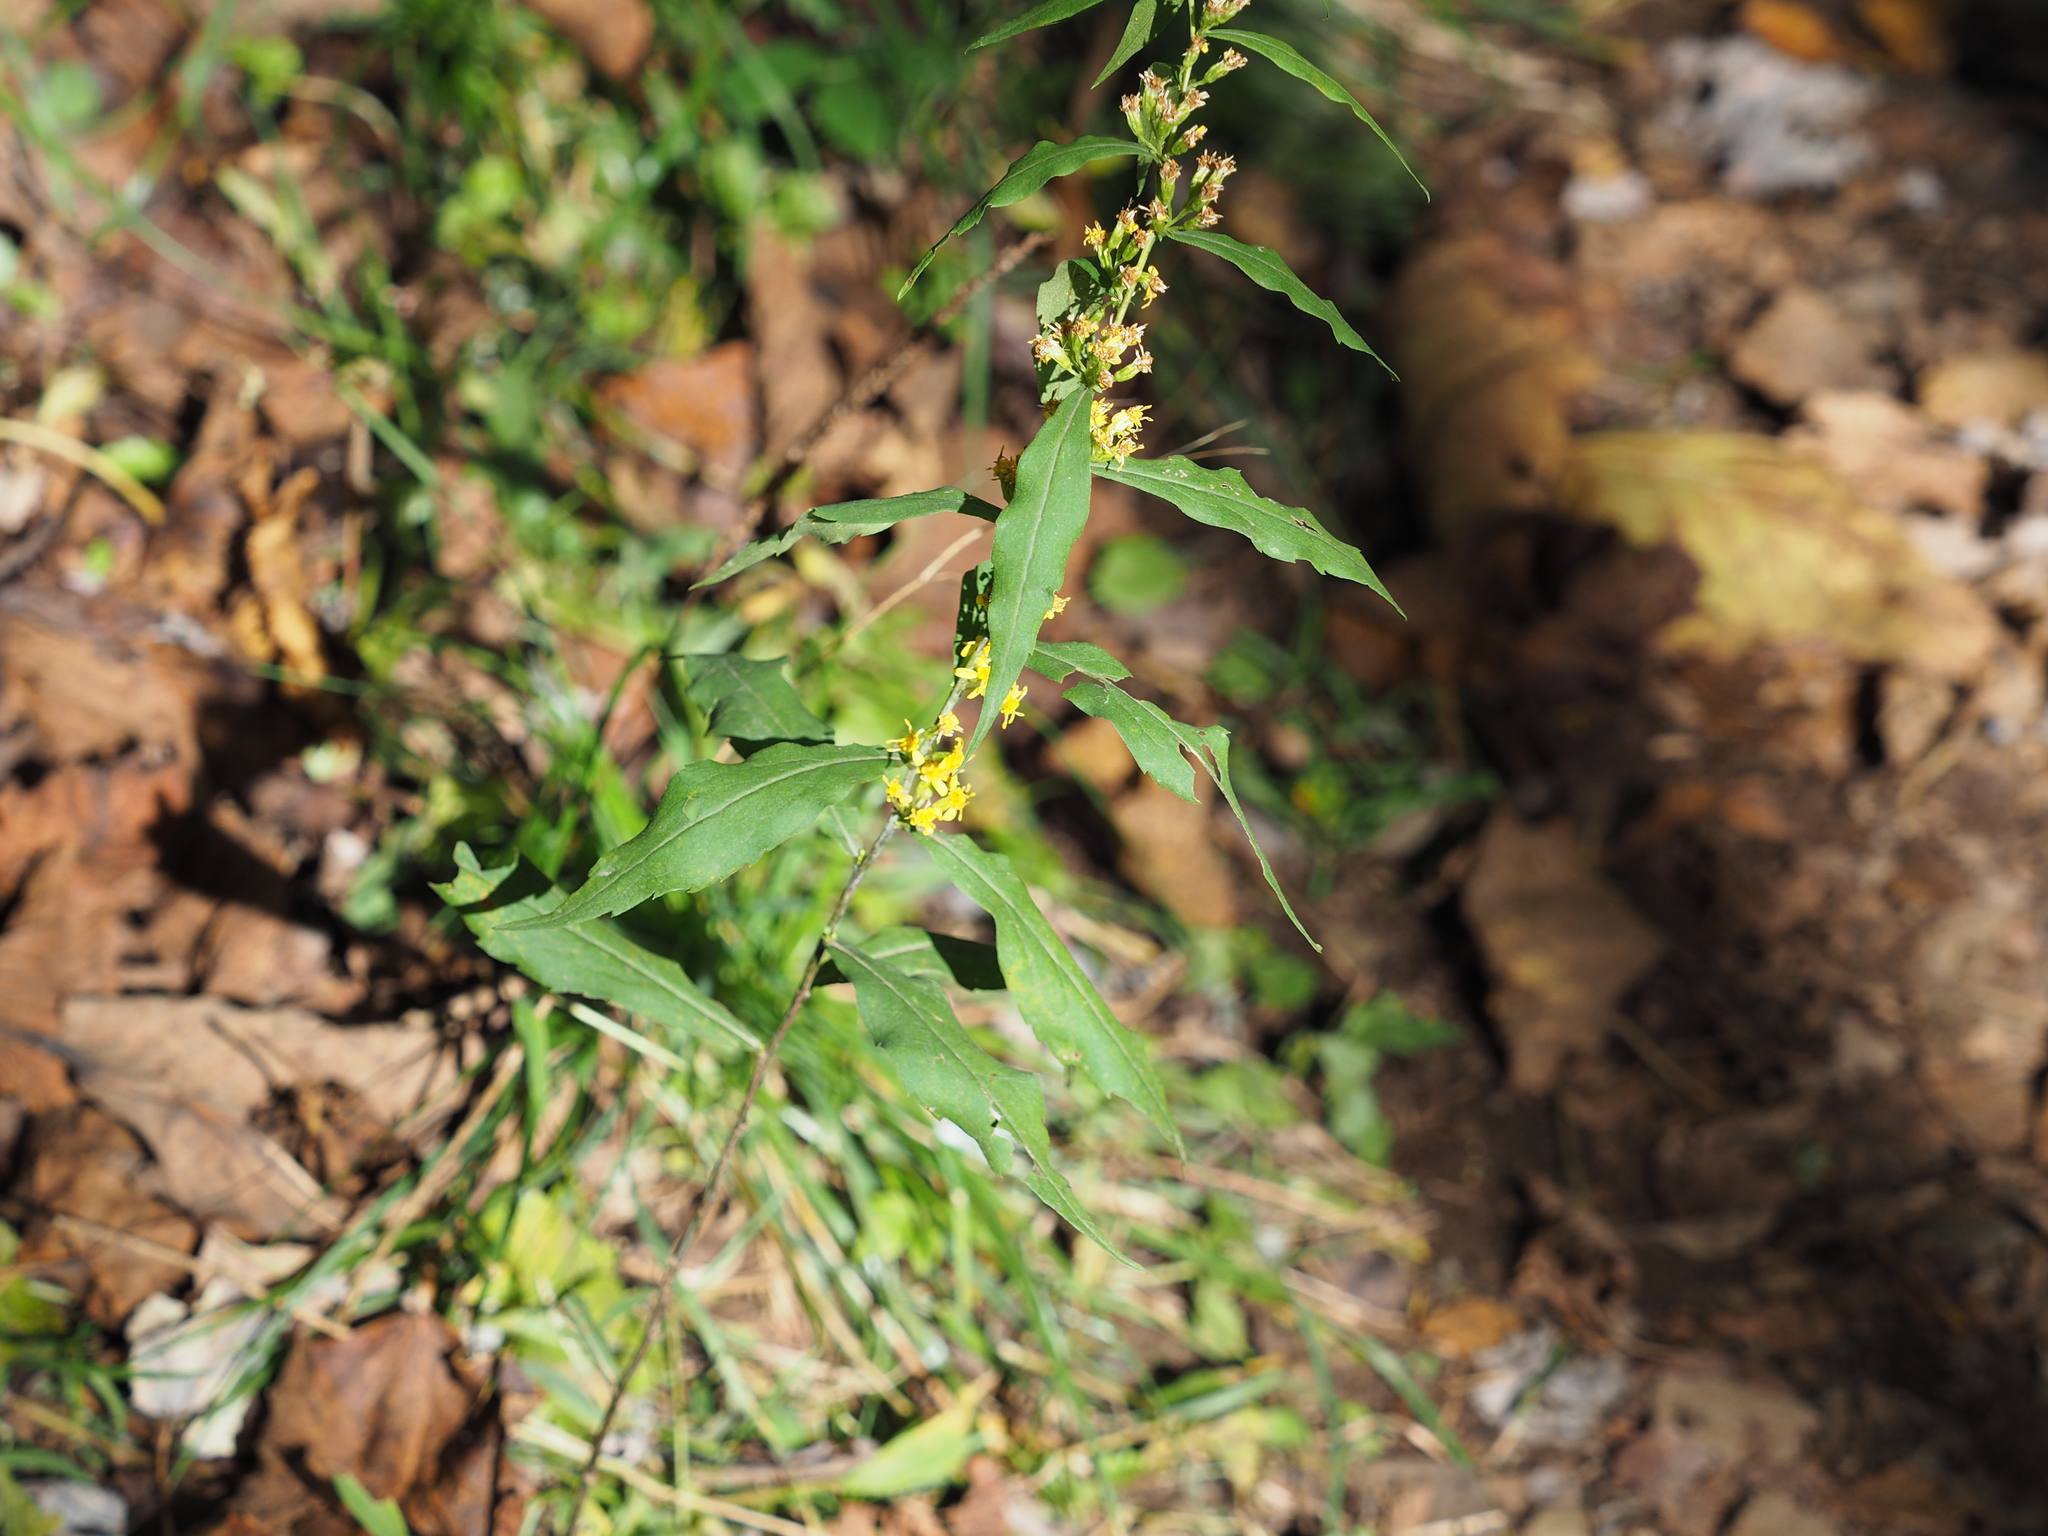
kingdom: Plantae
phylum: Tracheophyta
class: Magnoliopsida
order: Asterales
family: Asteraceae
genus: Solidago
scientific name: Solidago caesia
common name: Woodland goldenrod
